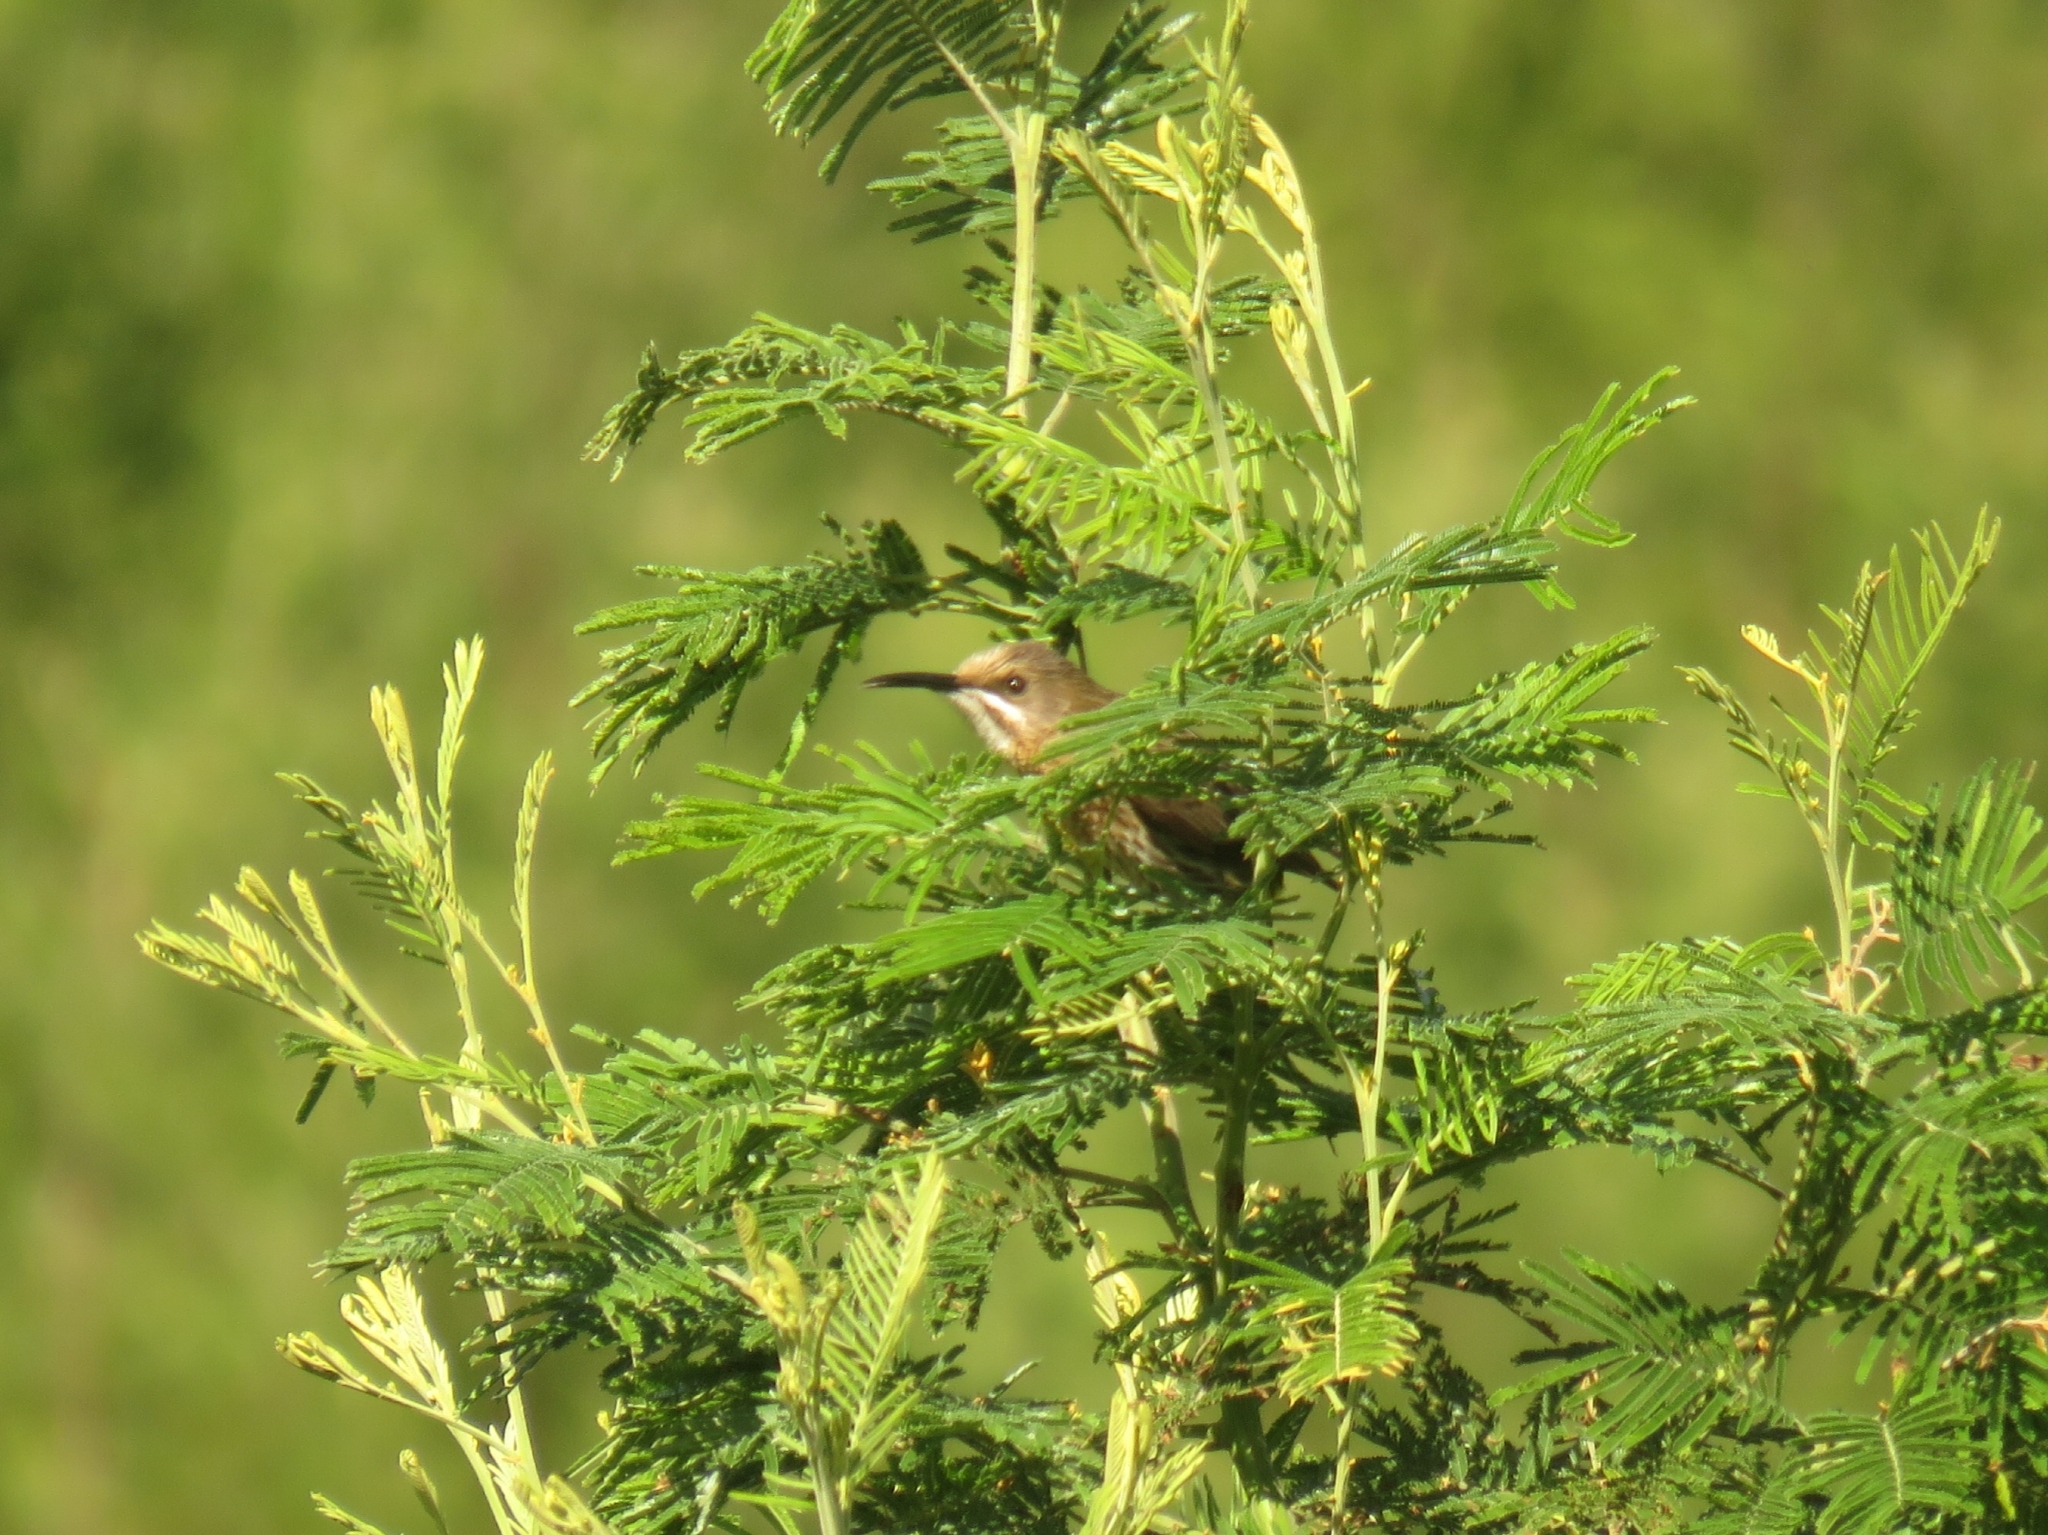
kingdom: Animalia
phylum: Chordata
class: Aves
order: Passeriformes
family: Promeropidae
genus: Promerops
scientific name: Promerops cafer
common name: Cape sugarbird
